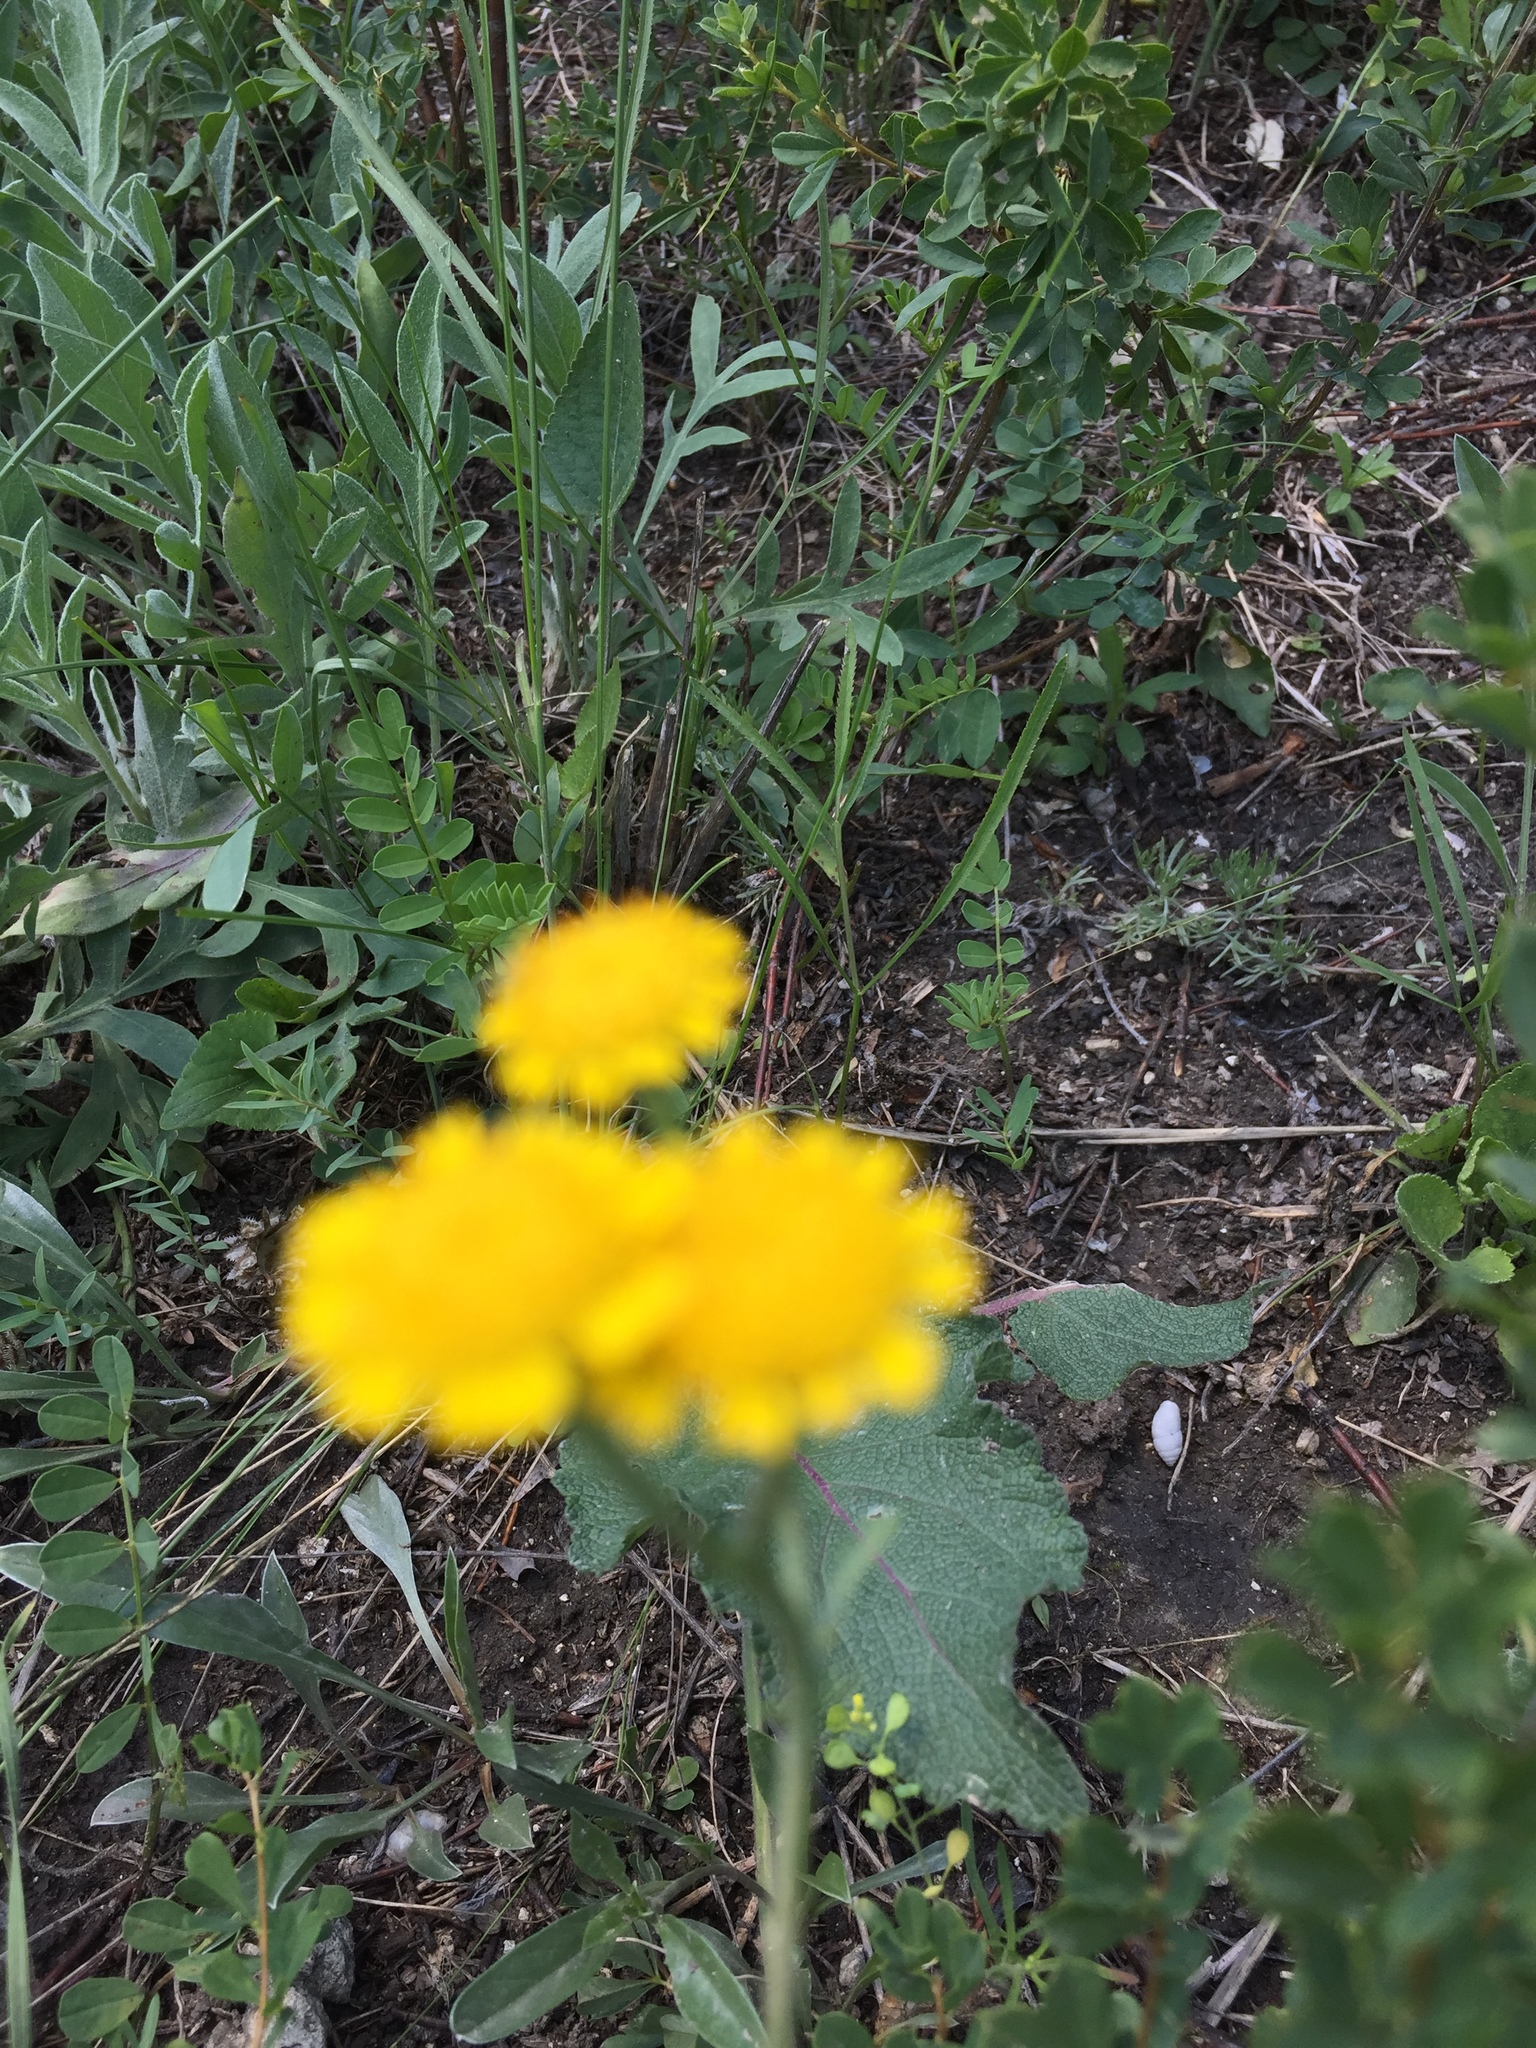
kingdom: Plantae
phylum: Tracheophyta
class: Magnoliopsida
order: Asterales
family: Asteraceae
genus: Cota
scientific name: Cota tinctoria
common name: Golden chamomile
